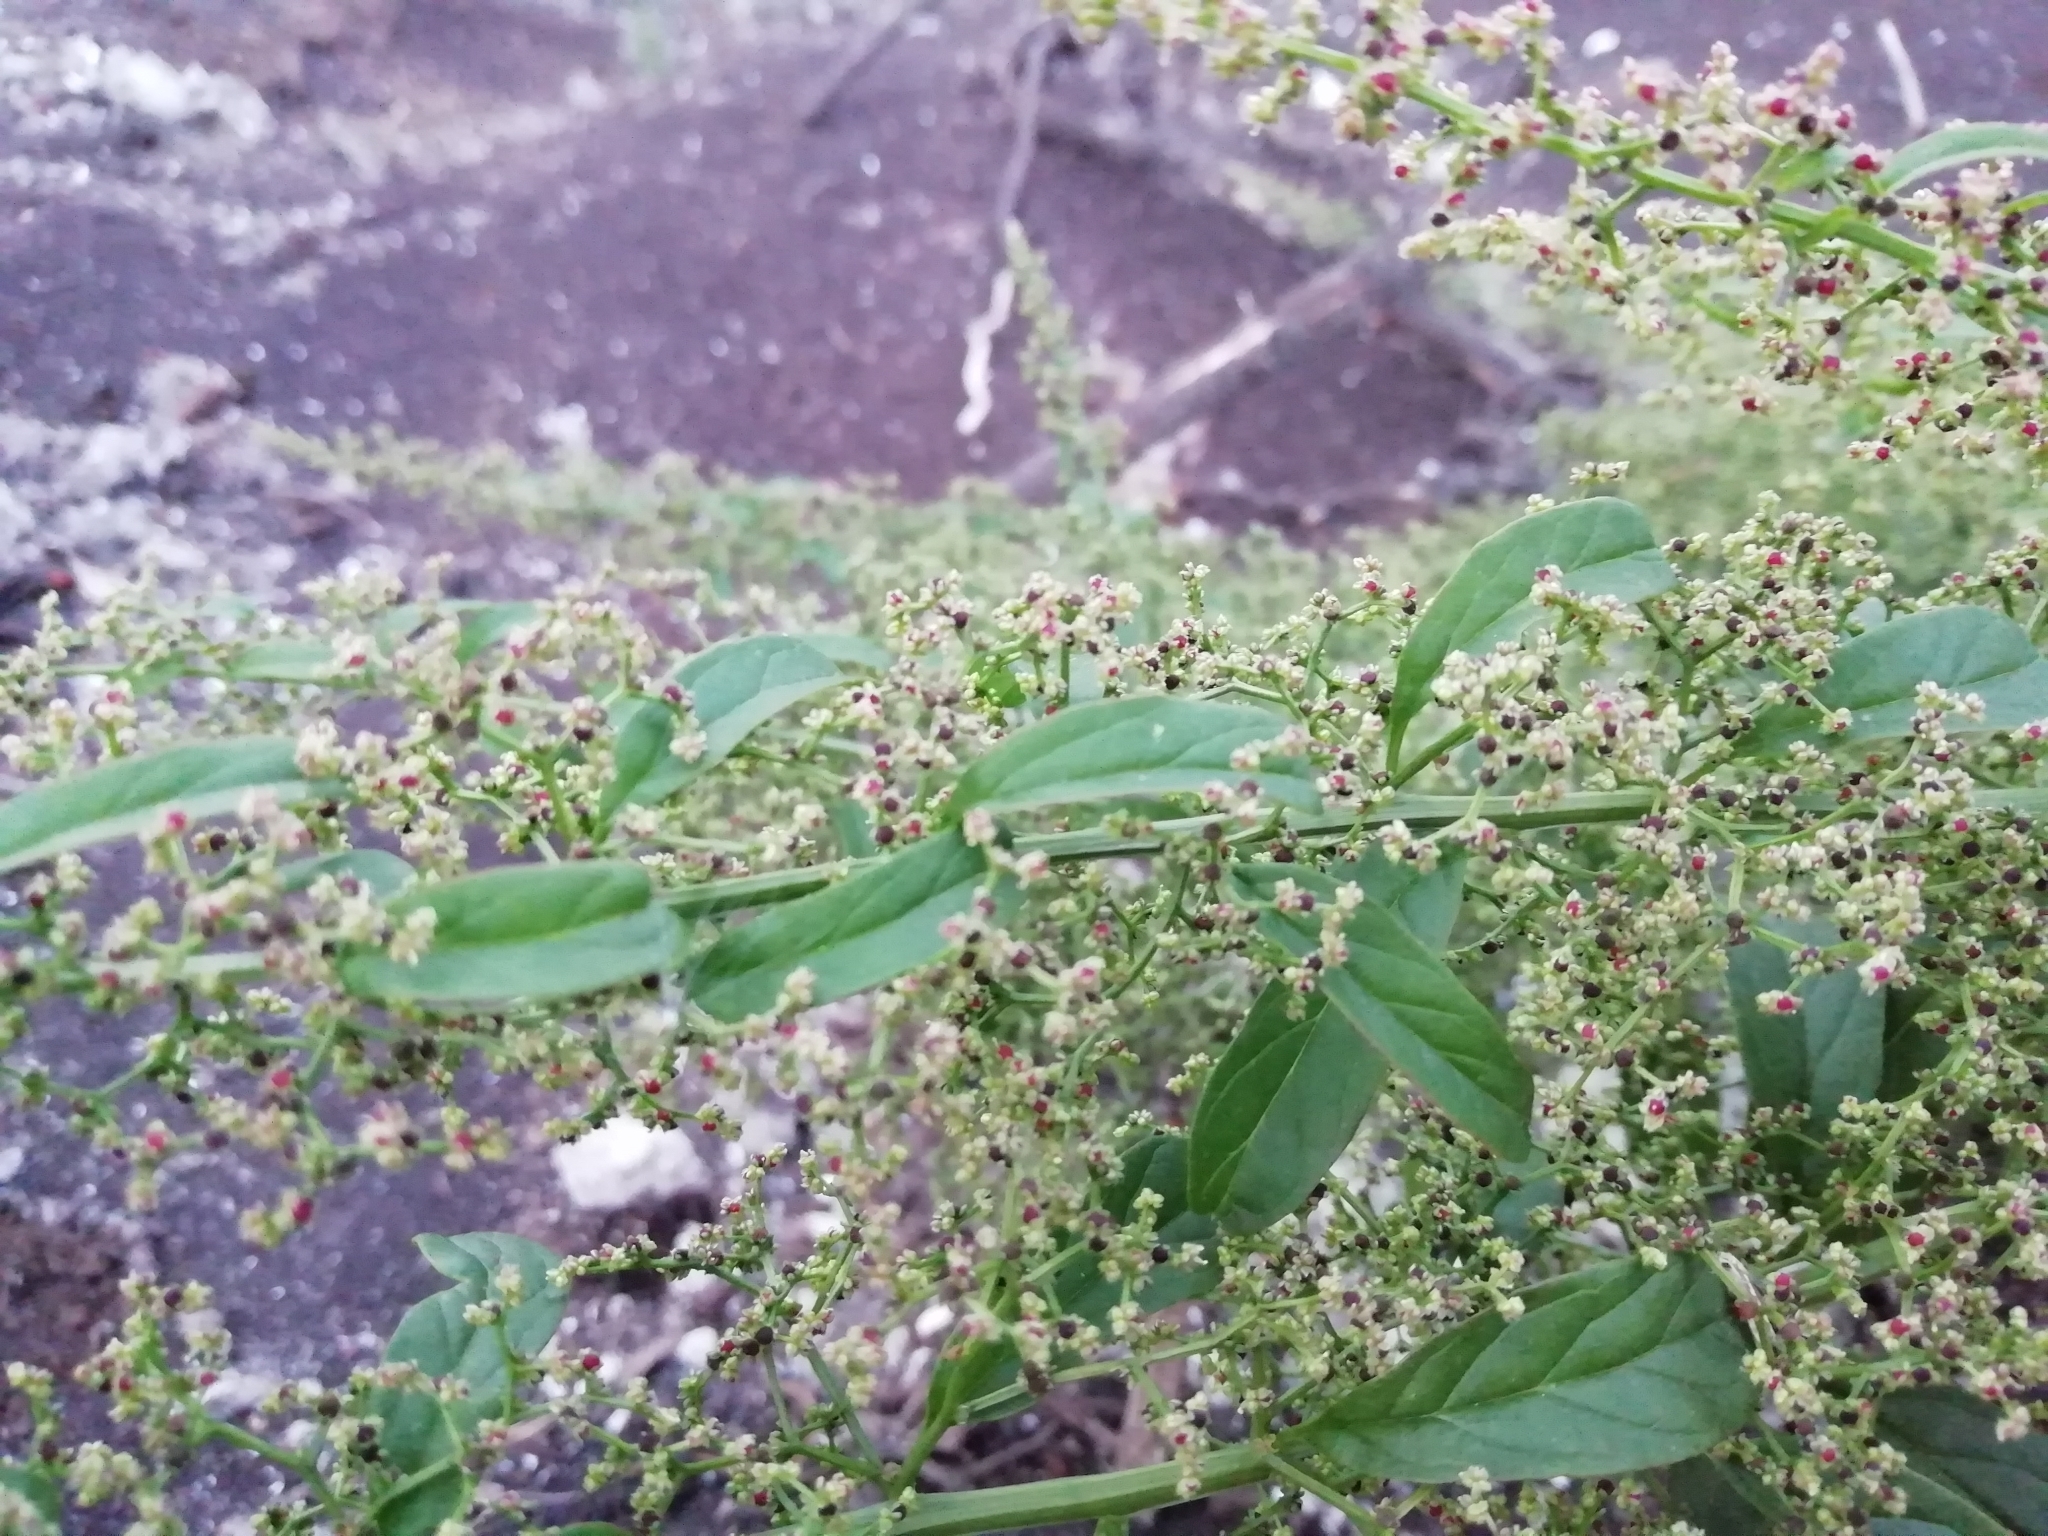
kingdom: Plantae
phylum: Tracheophyta
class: Magnoliopsida
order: Caryophyllales
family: Amaranthaceae
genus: Lipandra
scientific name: Lipandra polysperma
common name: Many-seed goosefoot
